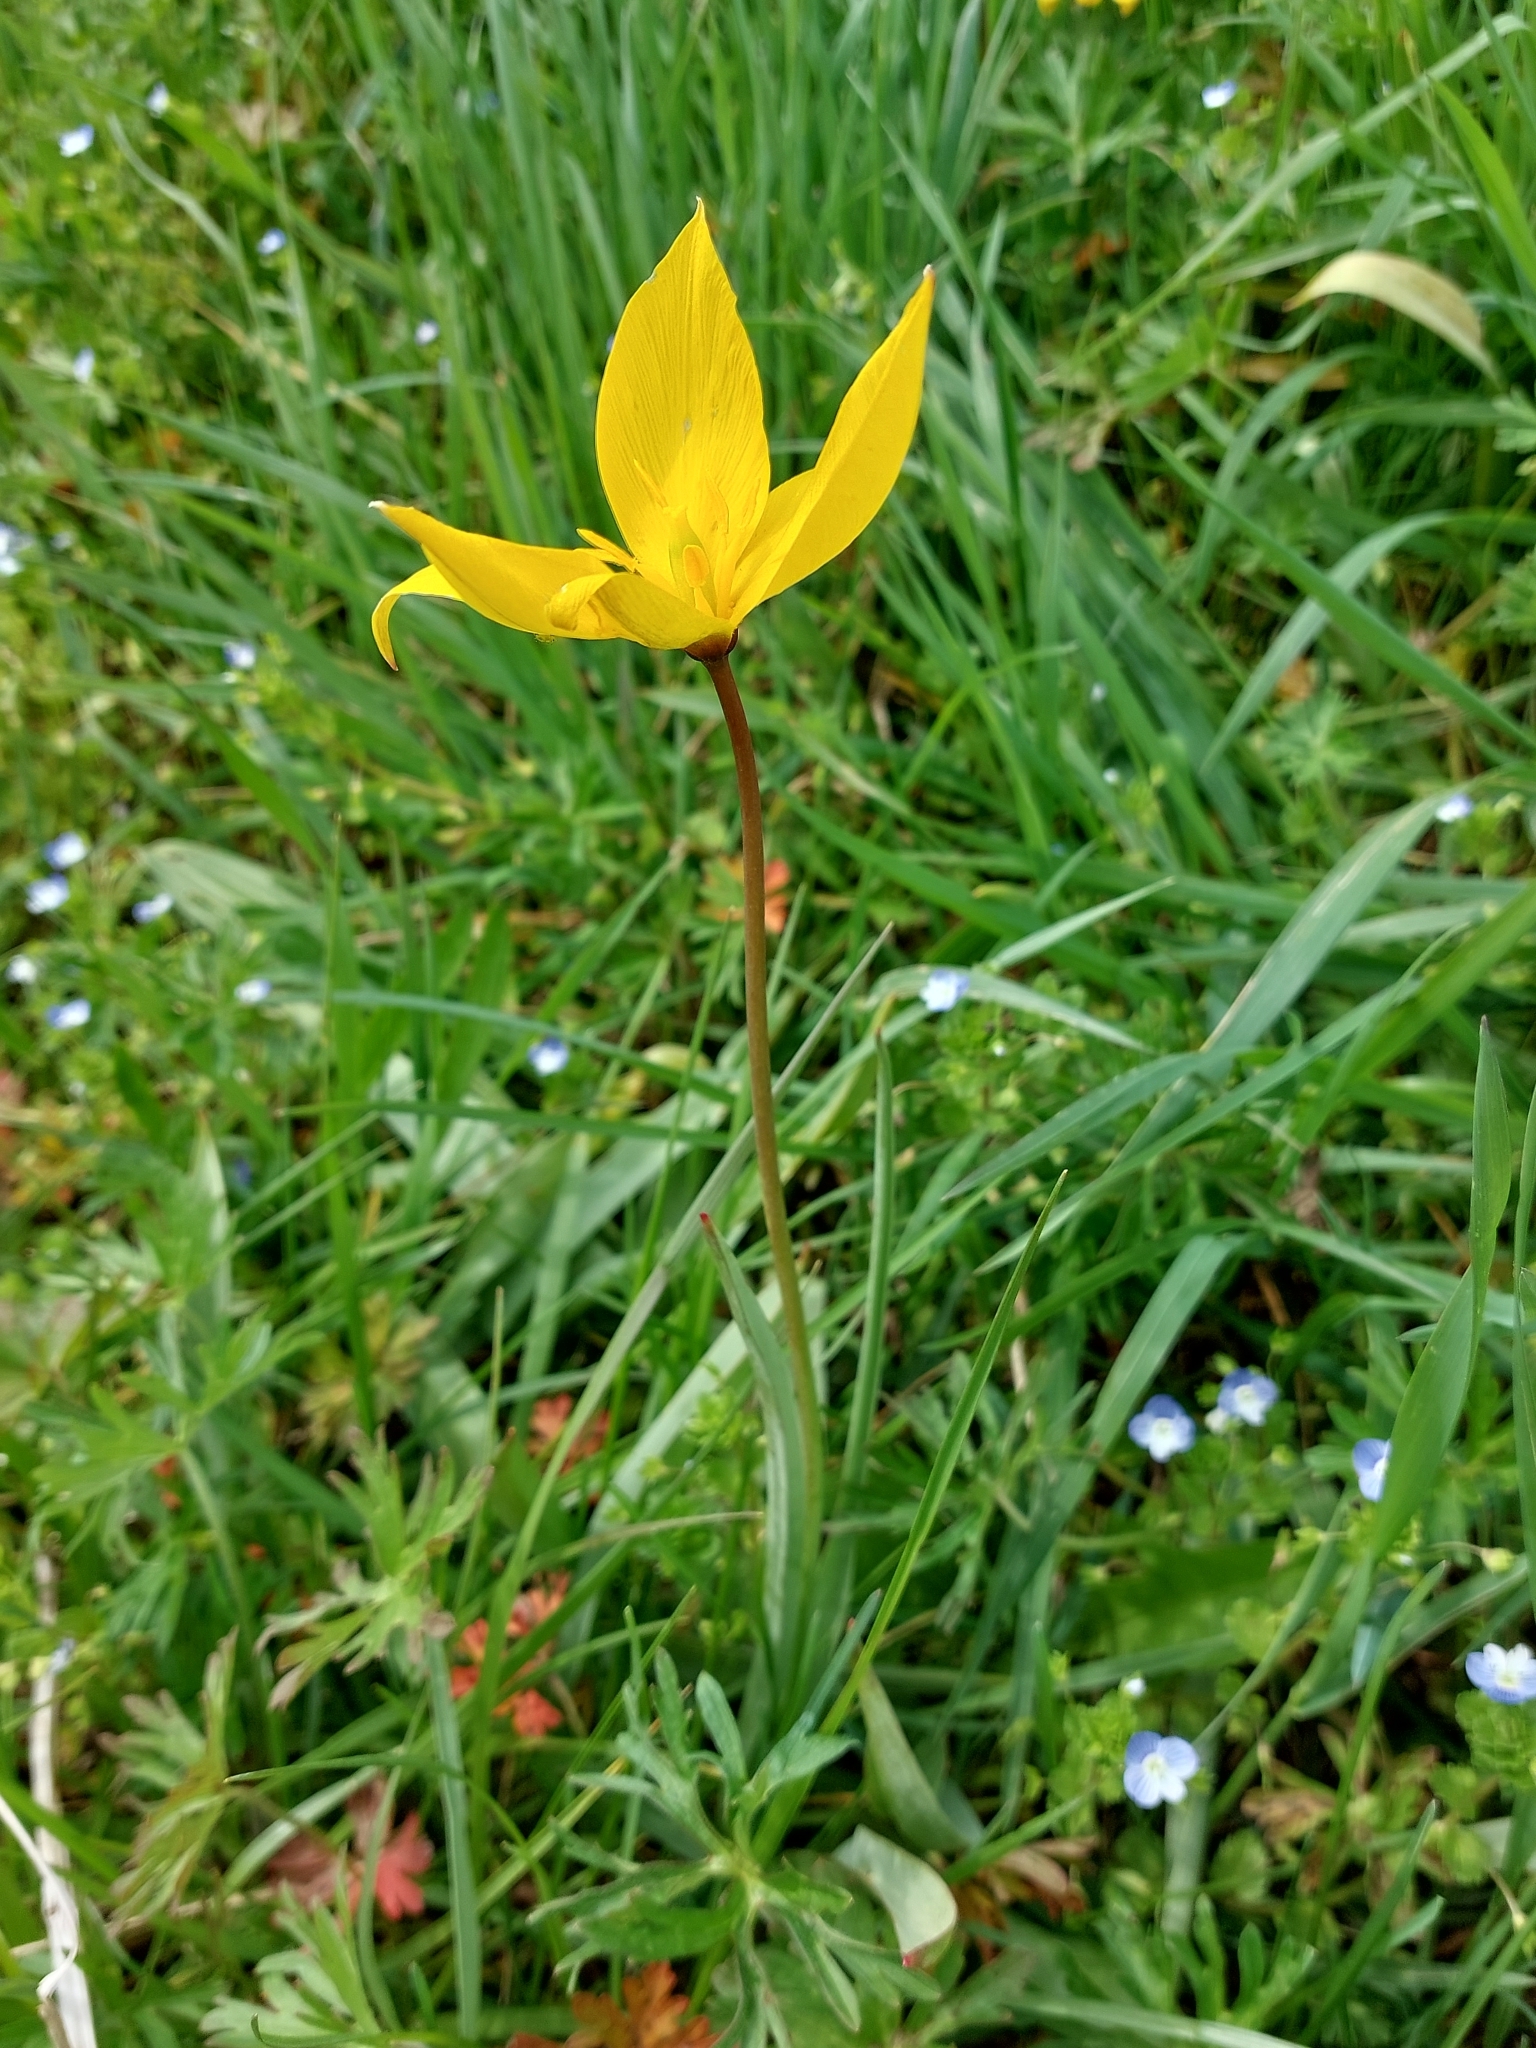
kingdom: Plantae
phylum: Tracheophyta
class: Liliopsida
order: Liliales
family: Liliaceae
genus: Tulipa
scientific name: Tulipa sylvestris
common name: Wild tulip
